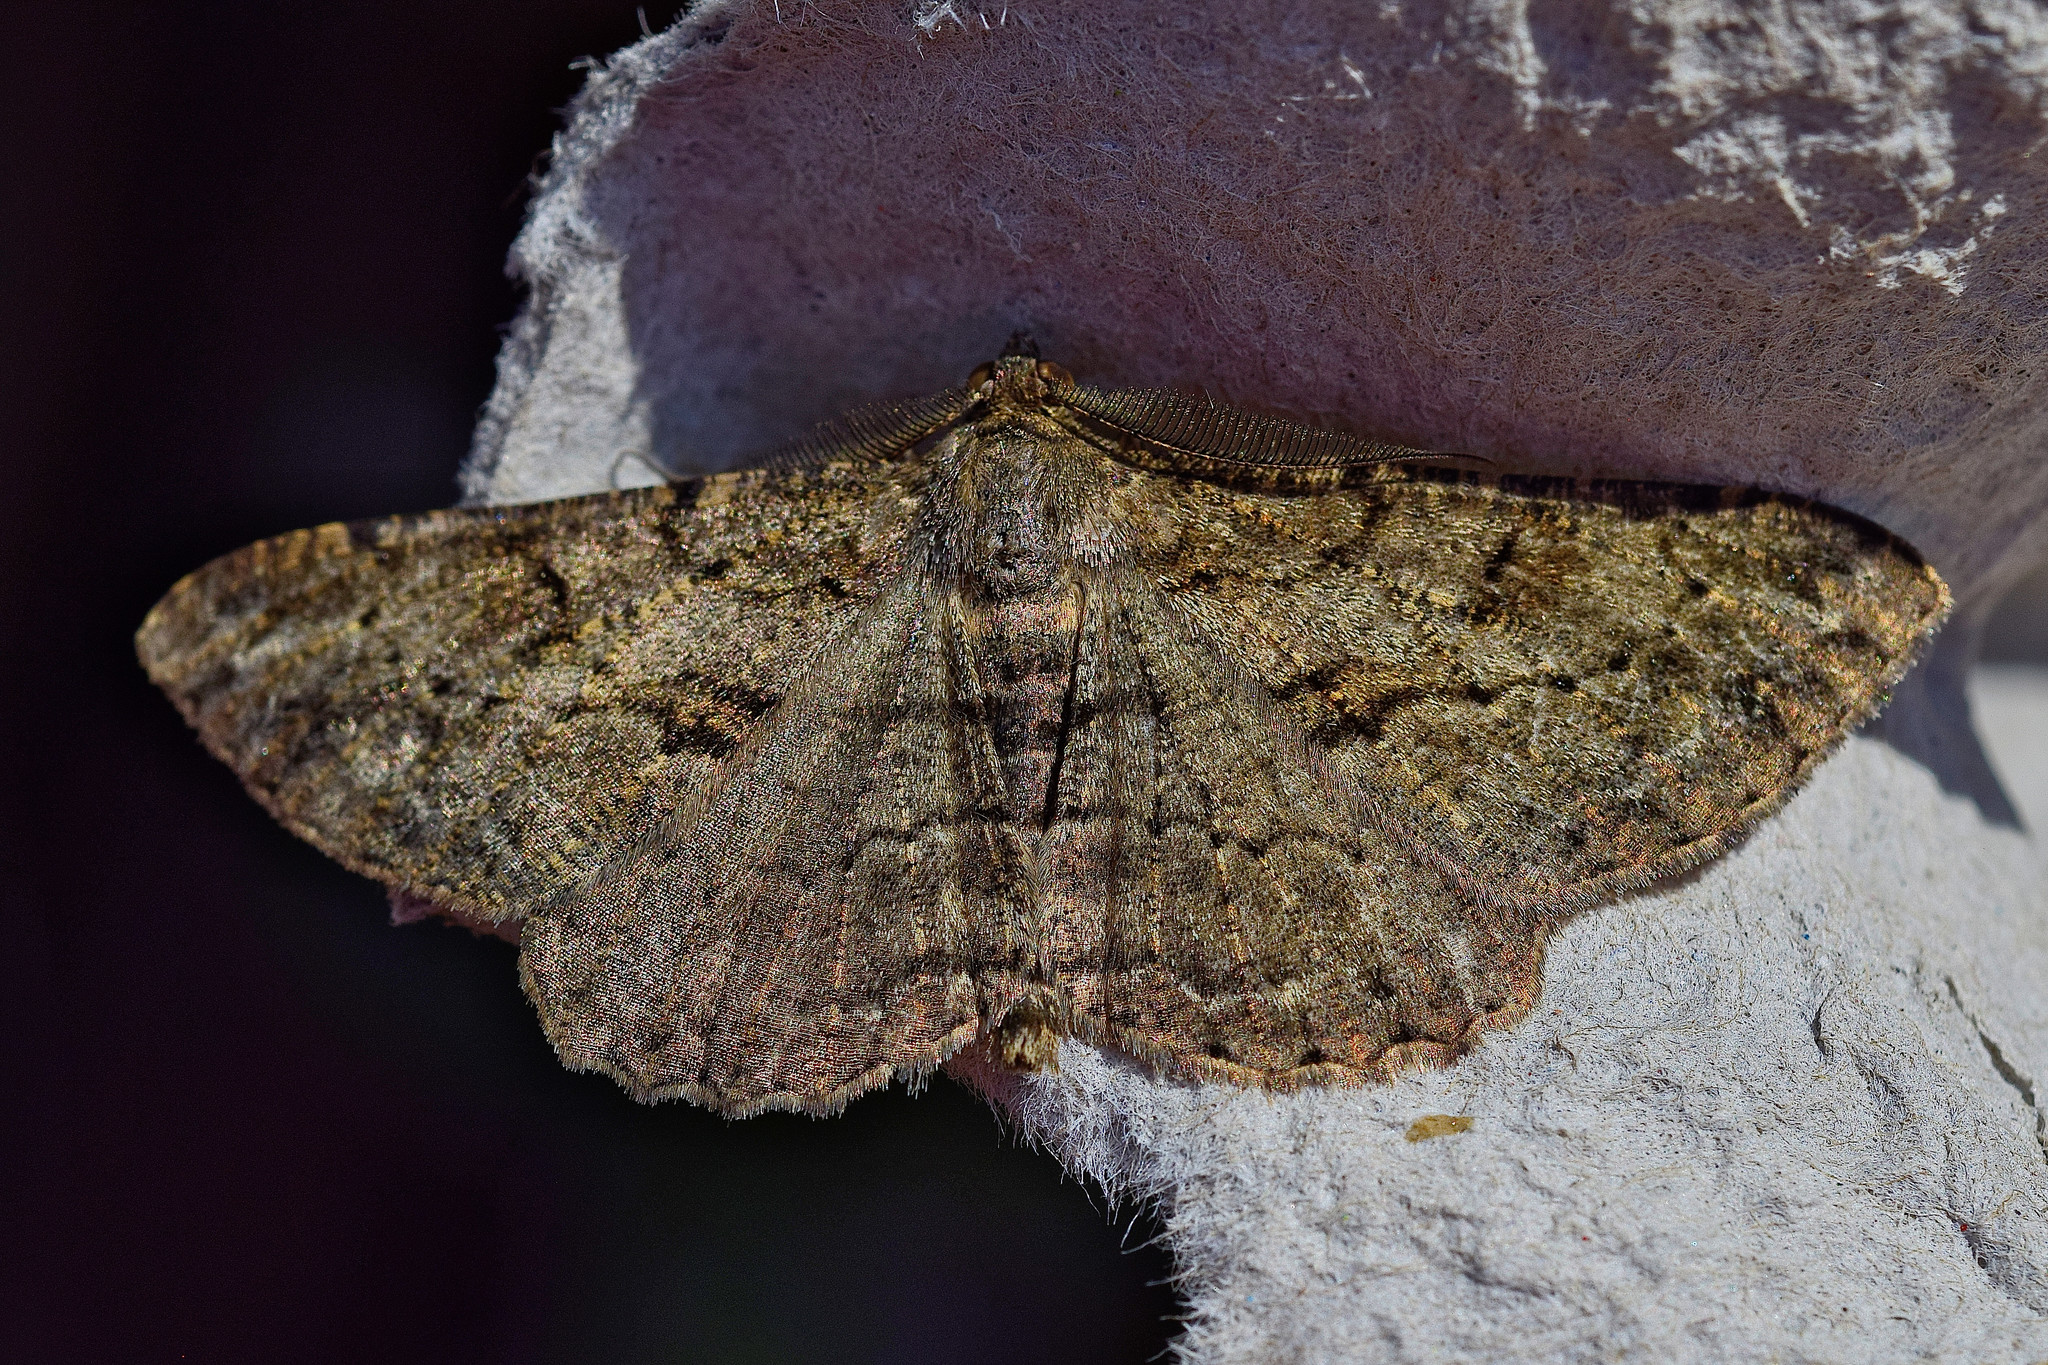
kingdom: Animalia
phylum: Arthropoda
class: Insecta
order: Lepidoptera
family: Geometridae
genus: Peribatodes
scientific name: Peribatodes rhomboidaria
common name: Willow beauty
